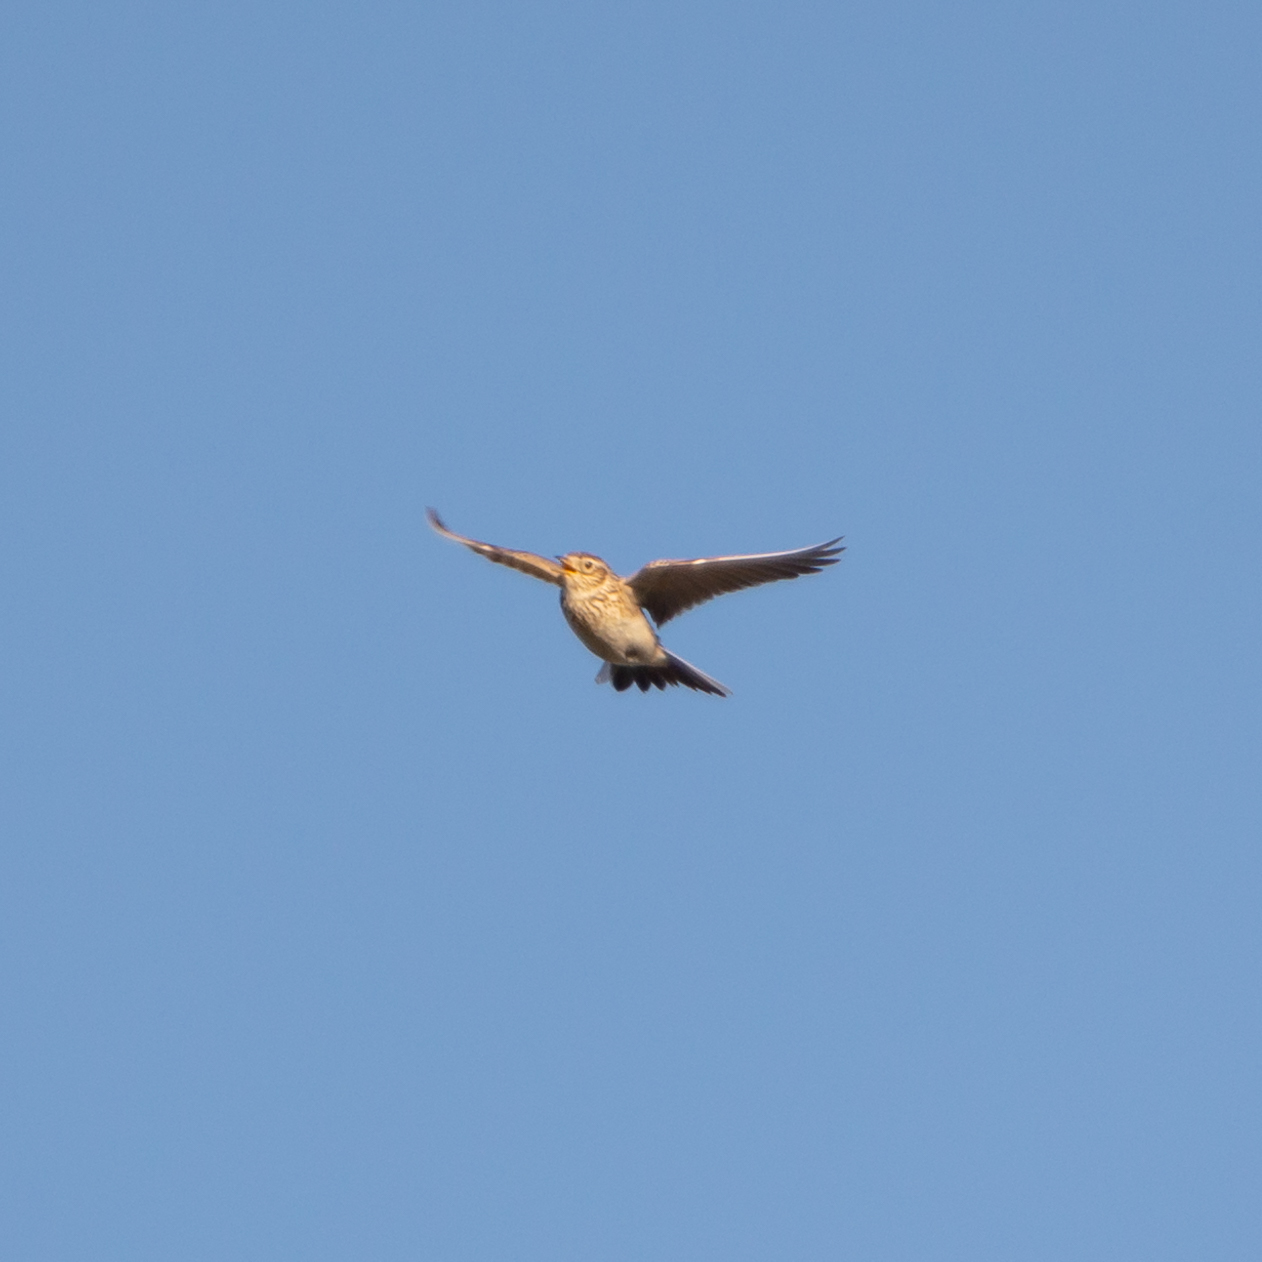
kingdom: Animalia
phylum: Chordata
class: Aves
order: Passeriformes
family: Alaudidae
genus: Alauda
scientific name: Alauda arvensis
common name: Eurasian skylark
